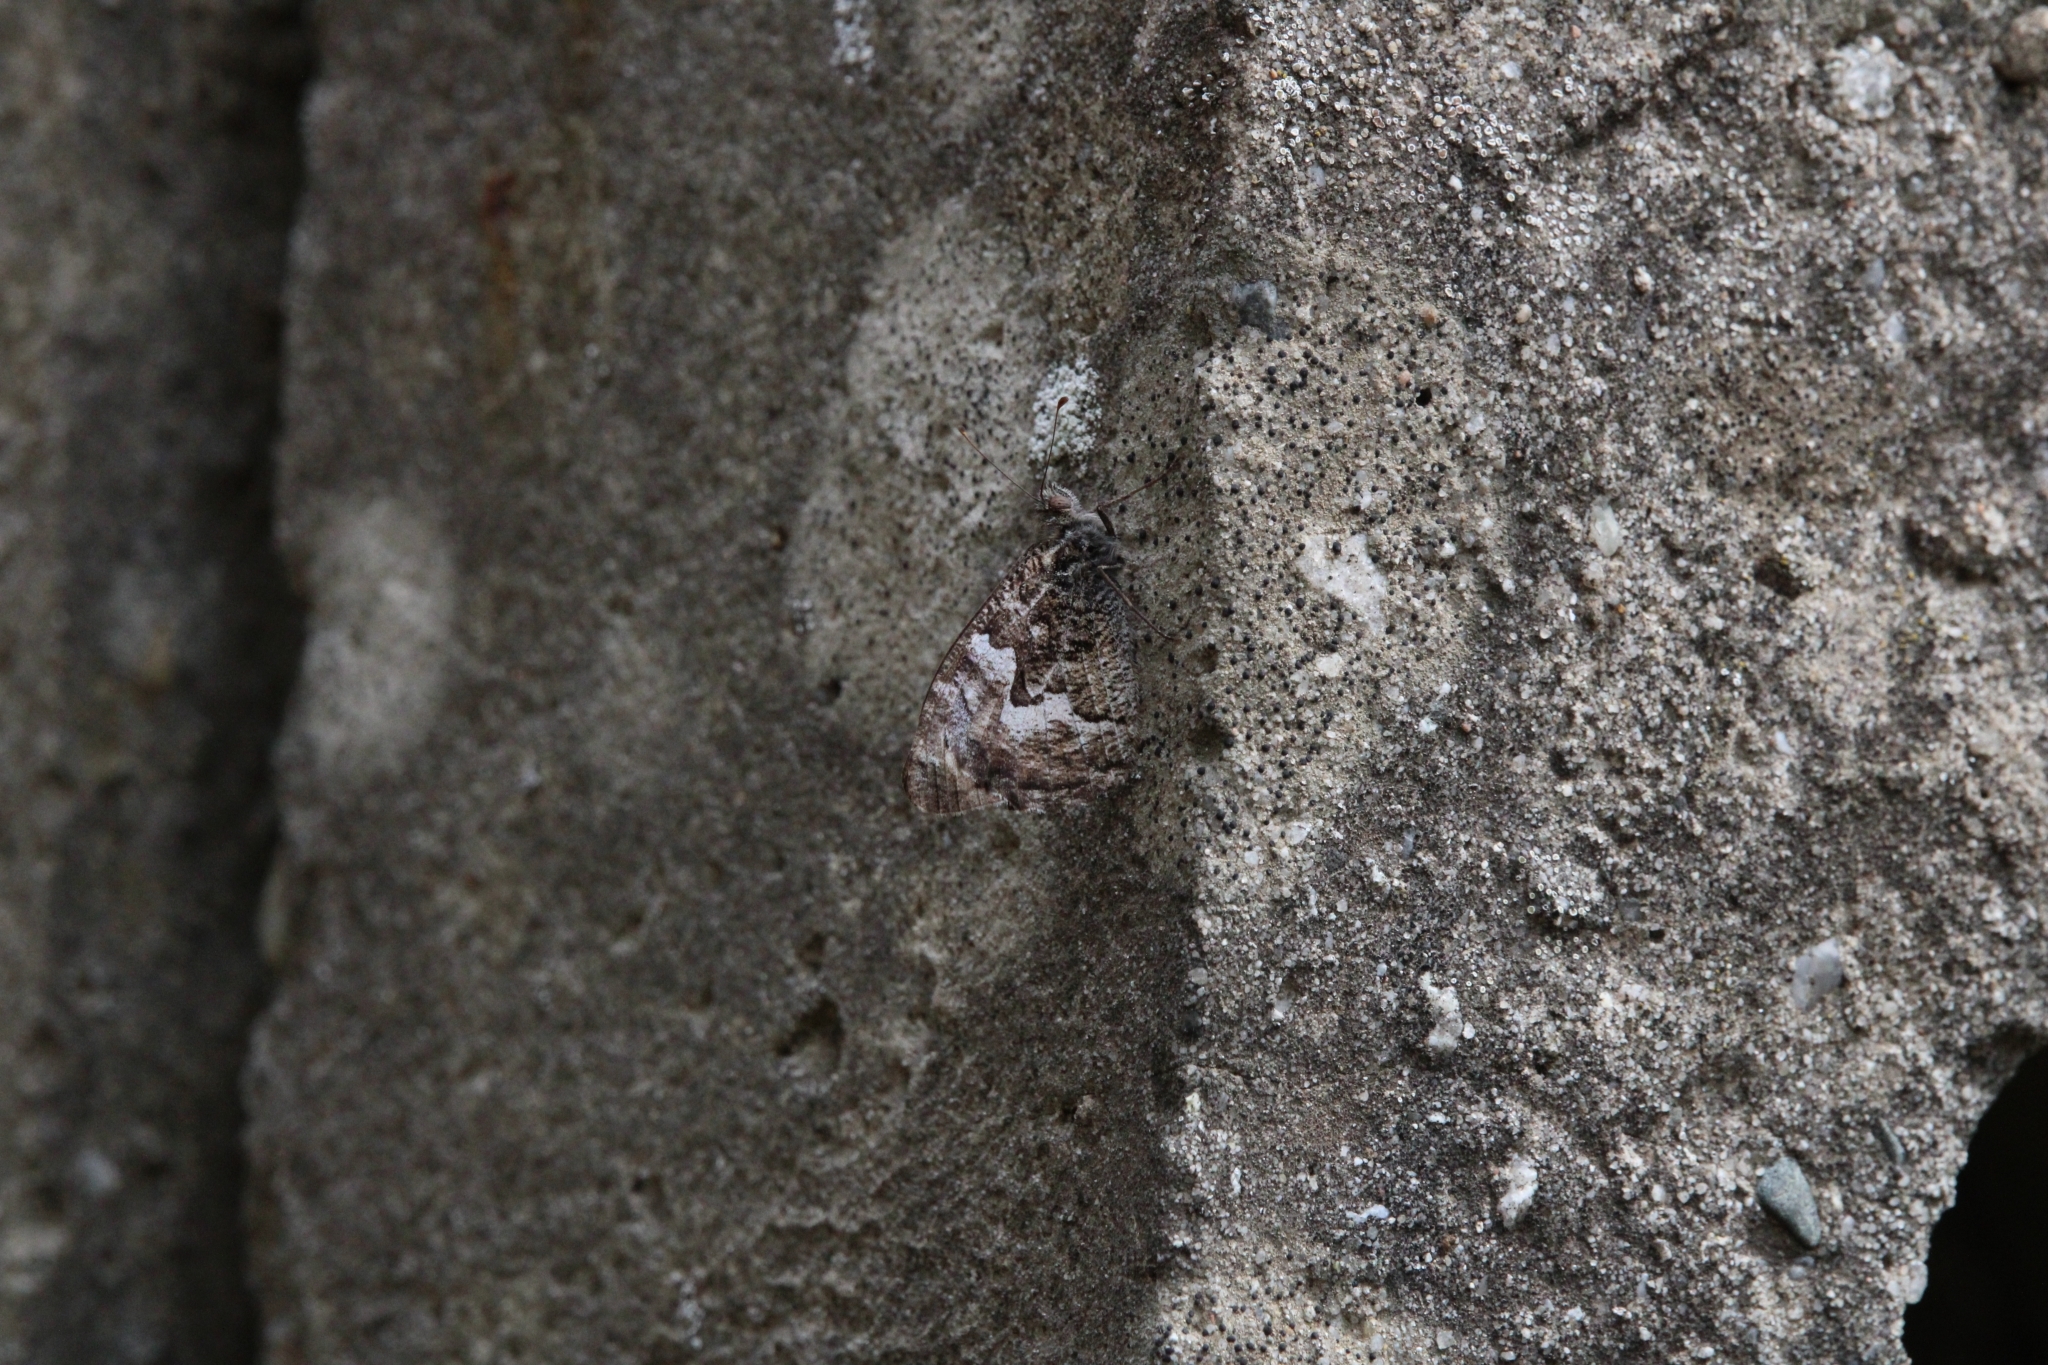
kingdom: Animalia
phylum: Arthropoda
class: Insecta
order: Lepidoptera
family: Nymphalidae
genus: Hipparchia
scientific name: Hipparchia semele
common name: Grayling
